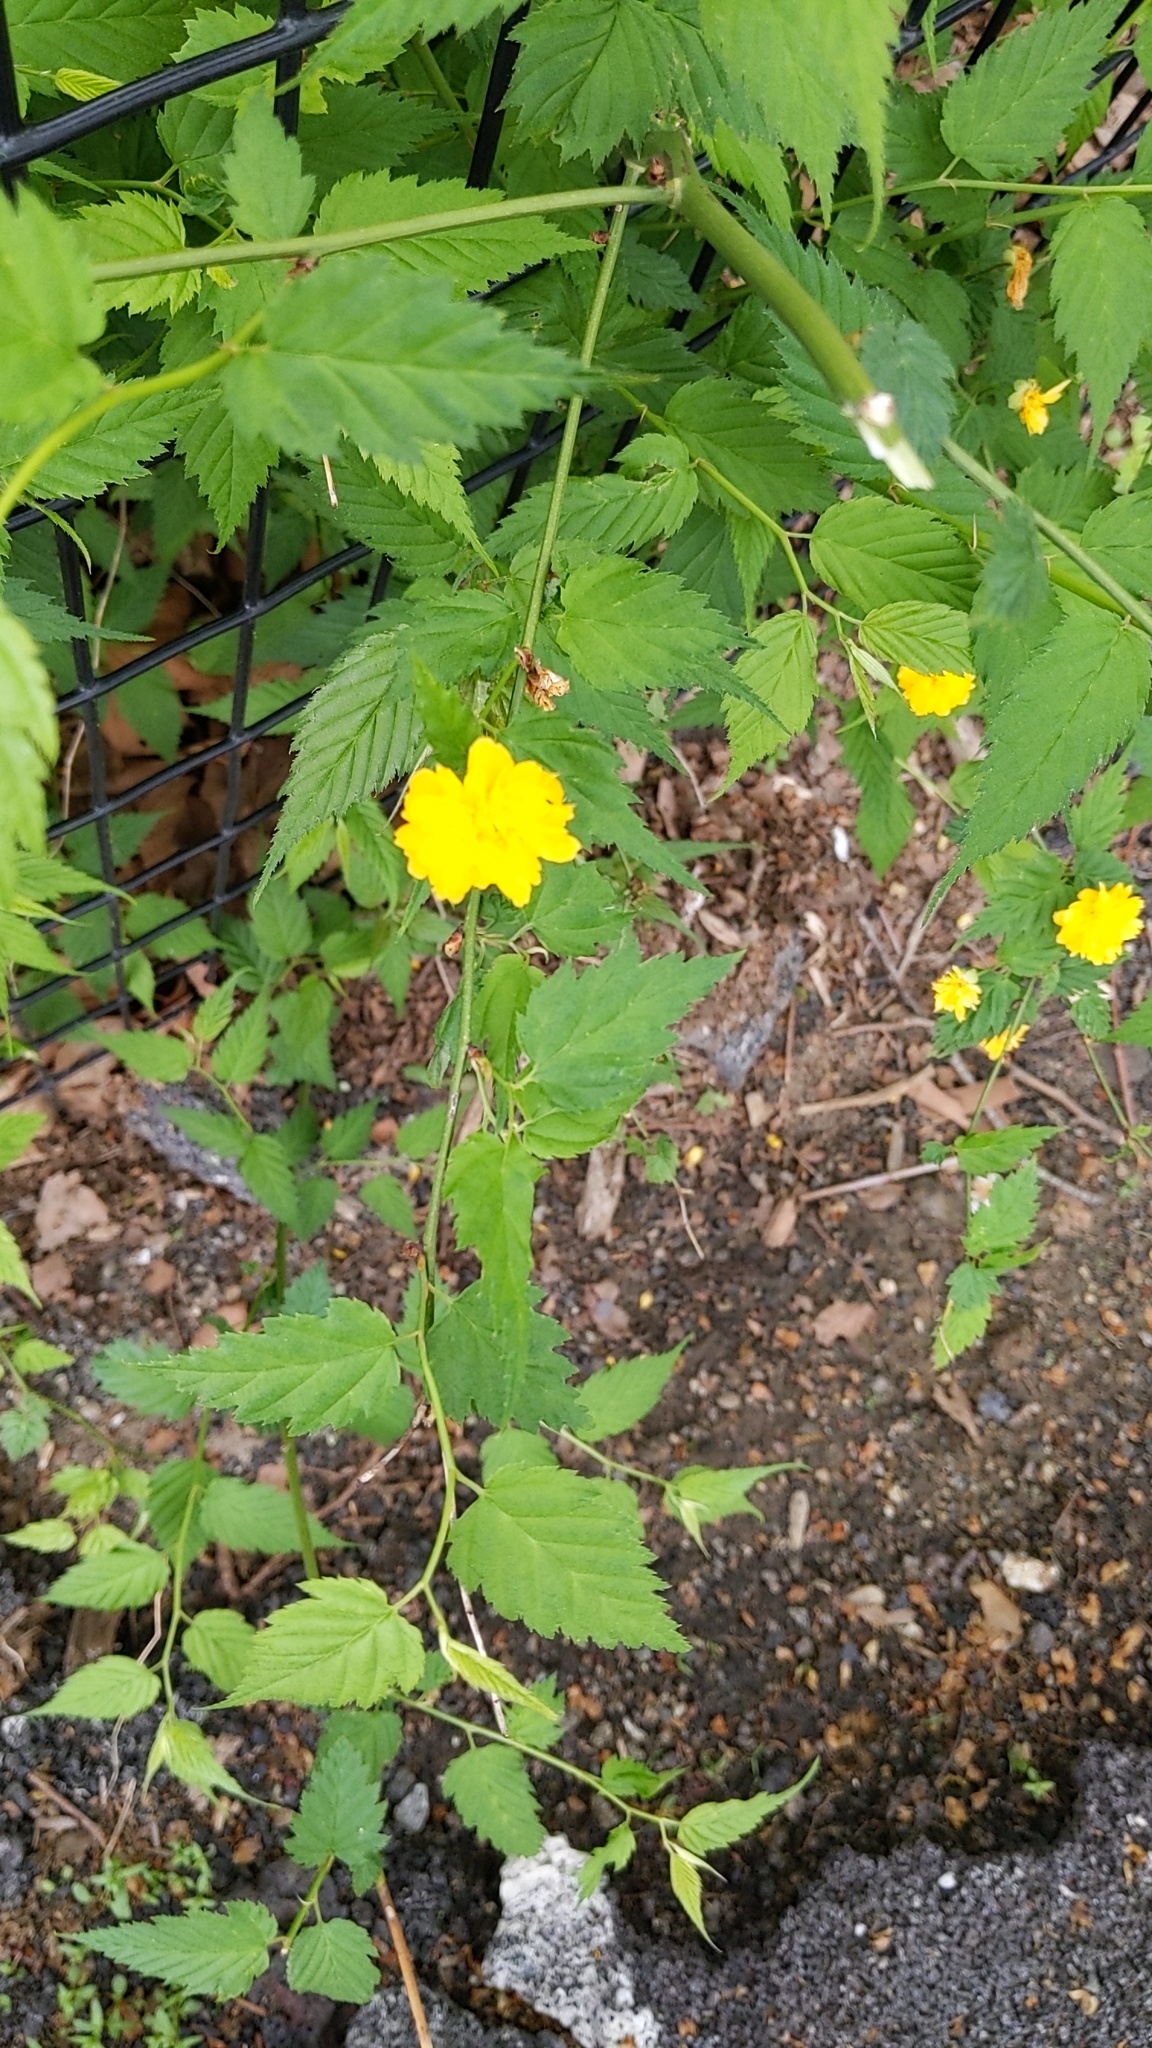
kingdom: Plantae
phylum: Tracheophyta
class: Magnoliopsida
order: Rosales
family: Rosaceae
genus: Kerria
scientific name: Kerria japonica
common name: Japanese kerria
